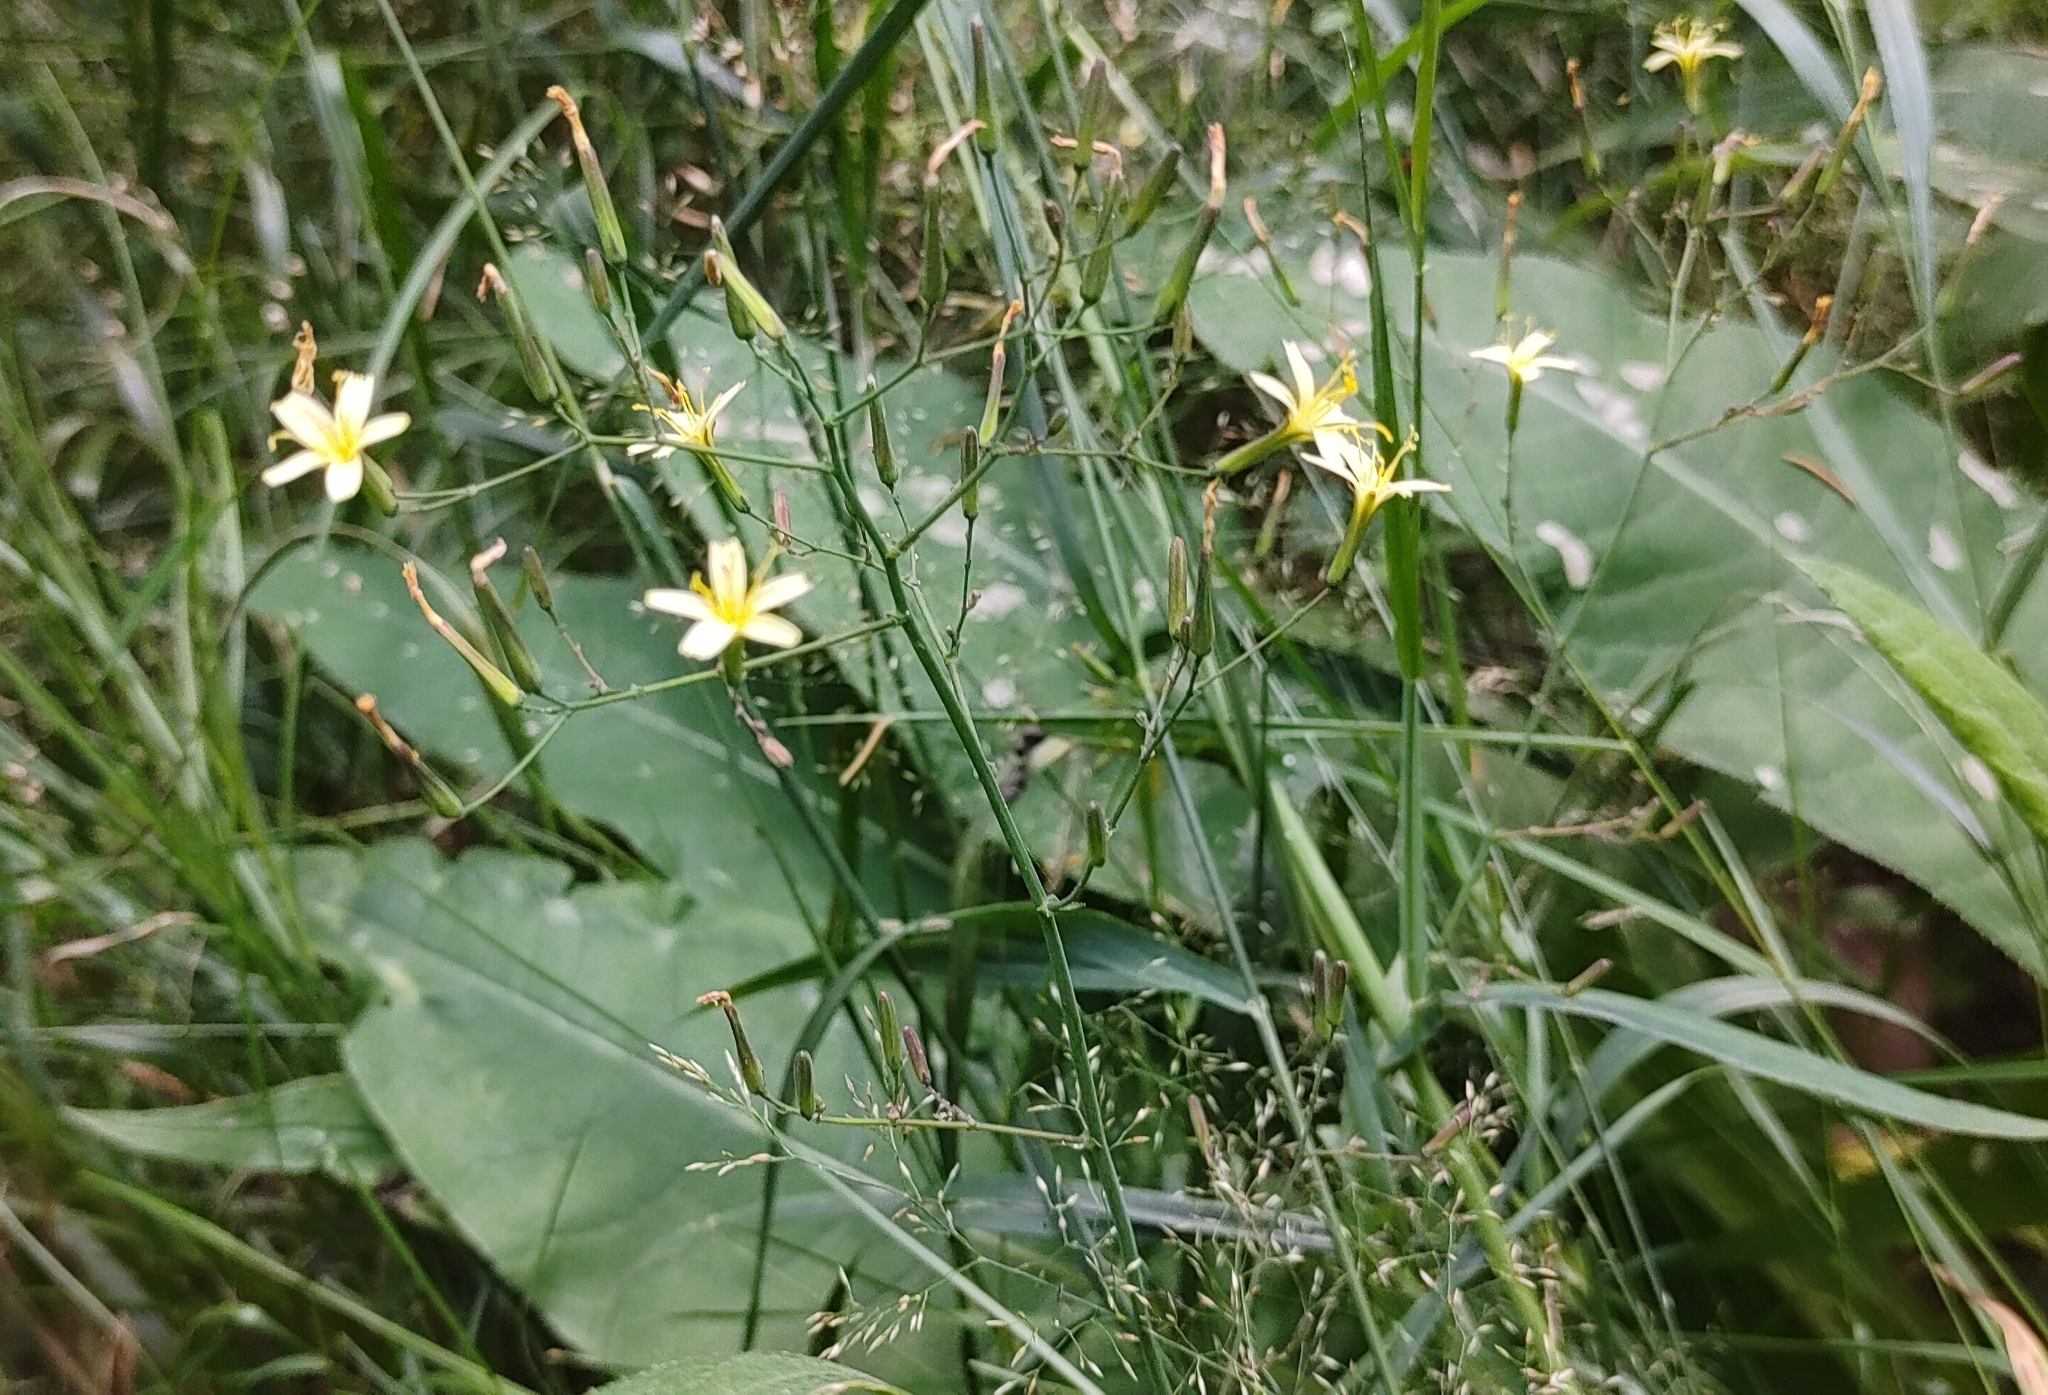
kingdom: Plantae
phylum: Tracheophyta
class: Magnoliopsida
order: Asterales
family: Asteraceae
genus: Mycelis
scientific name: Mycelis muralis
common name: Wall lettuce
